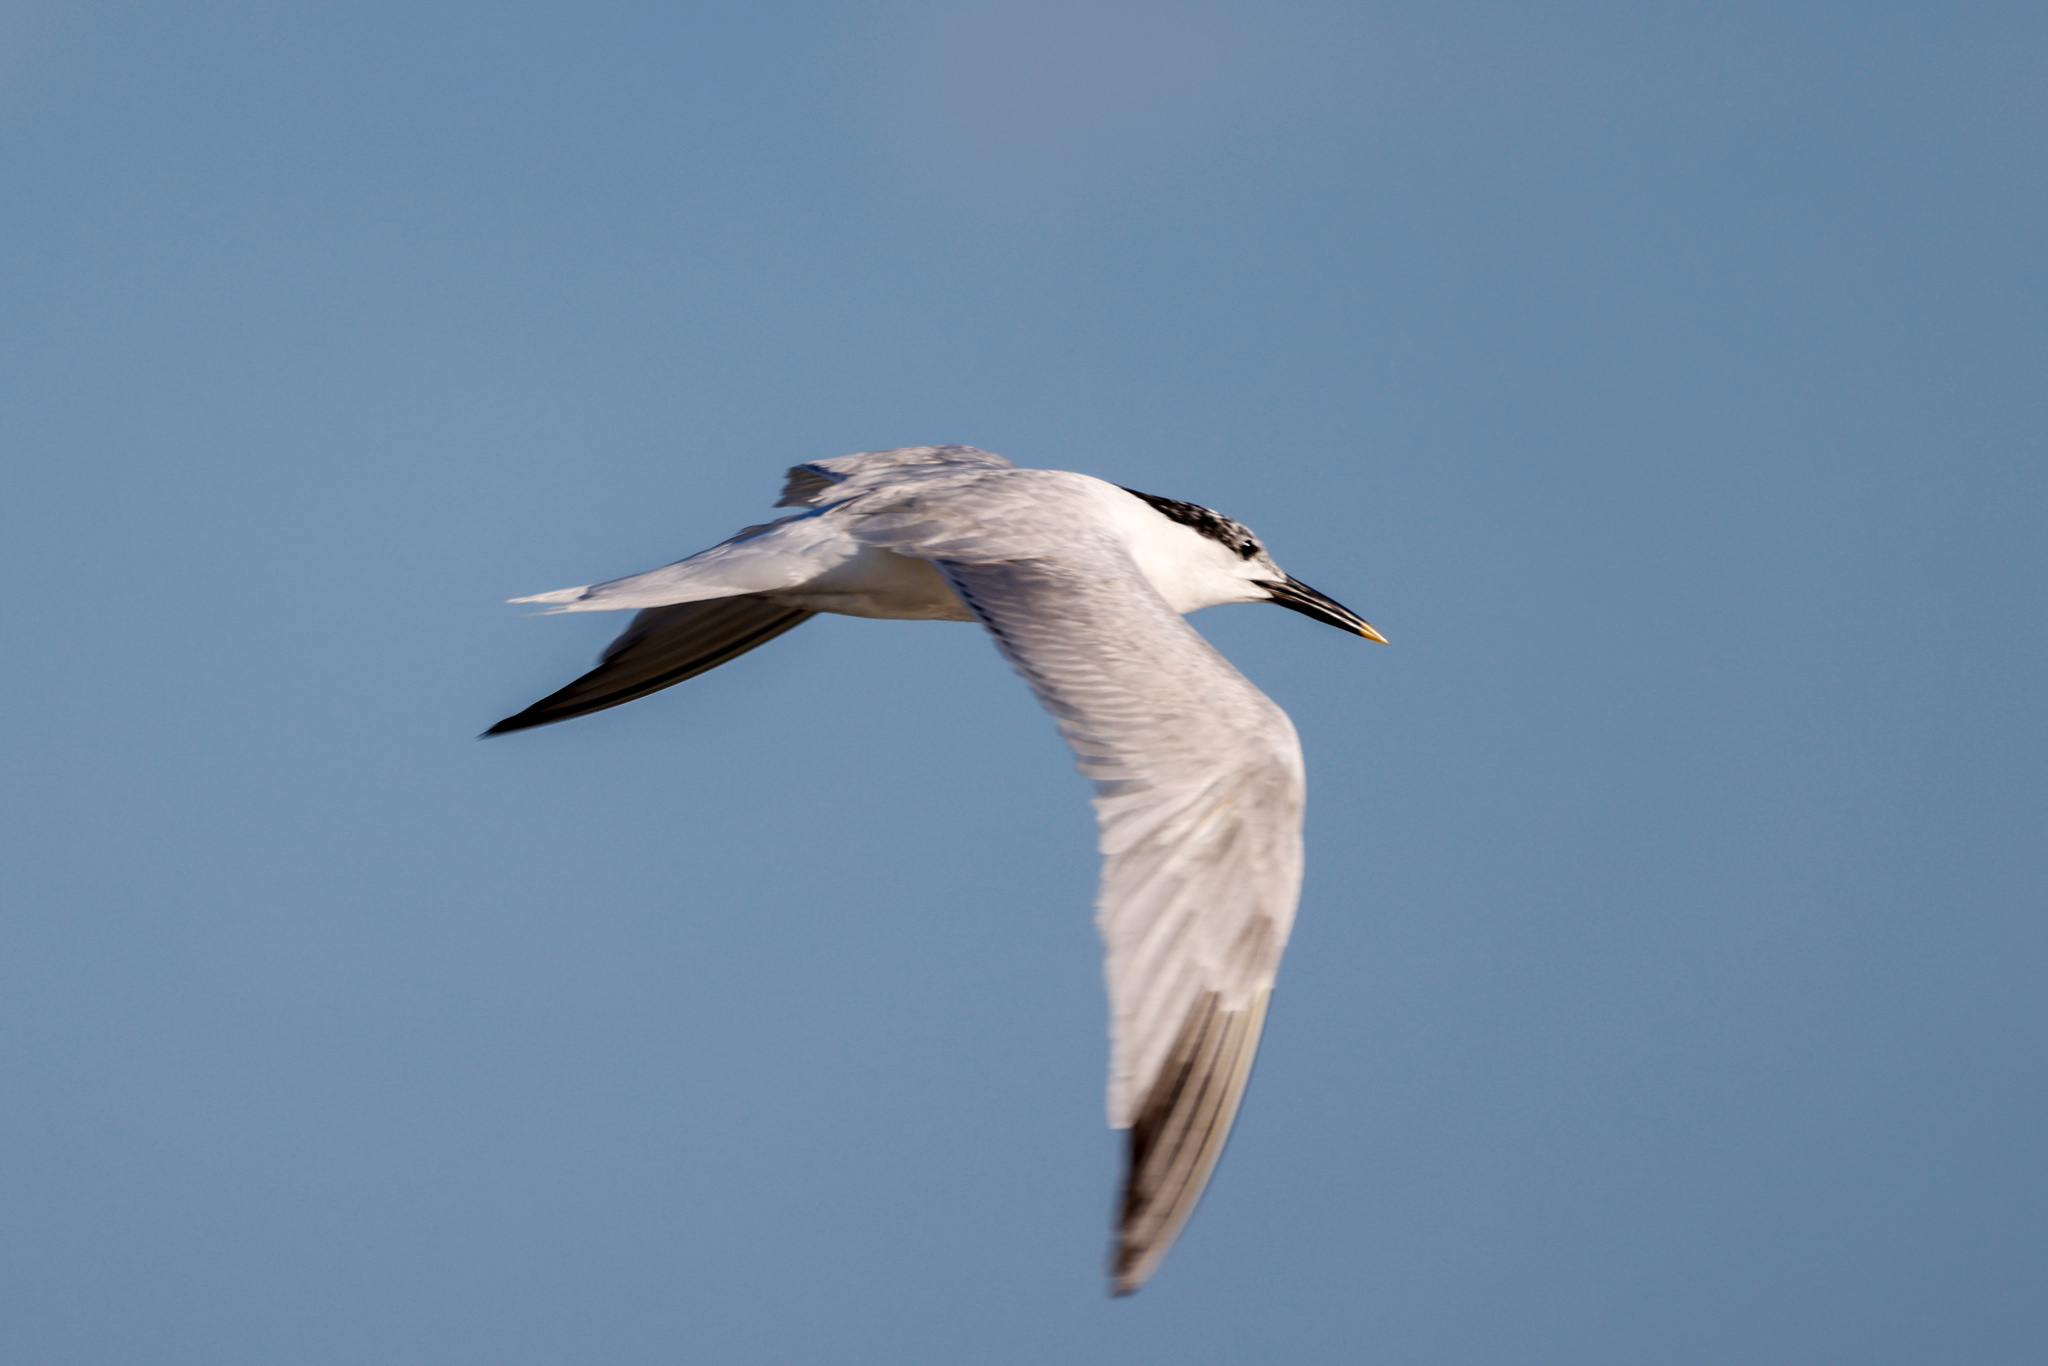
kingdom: Animalia
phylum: Chordata
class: Aves
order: Charadriiformes
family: Laridae
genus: Thalasseus
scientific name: Thalasseus sandvicensis
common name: Sandwich tern
